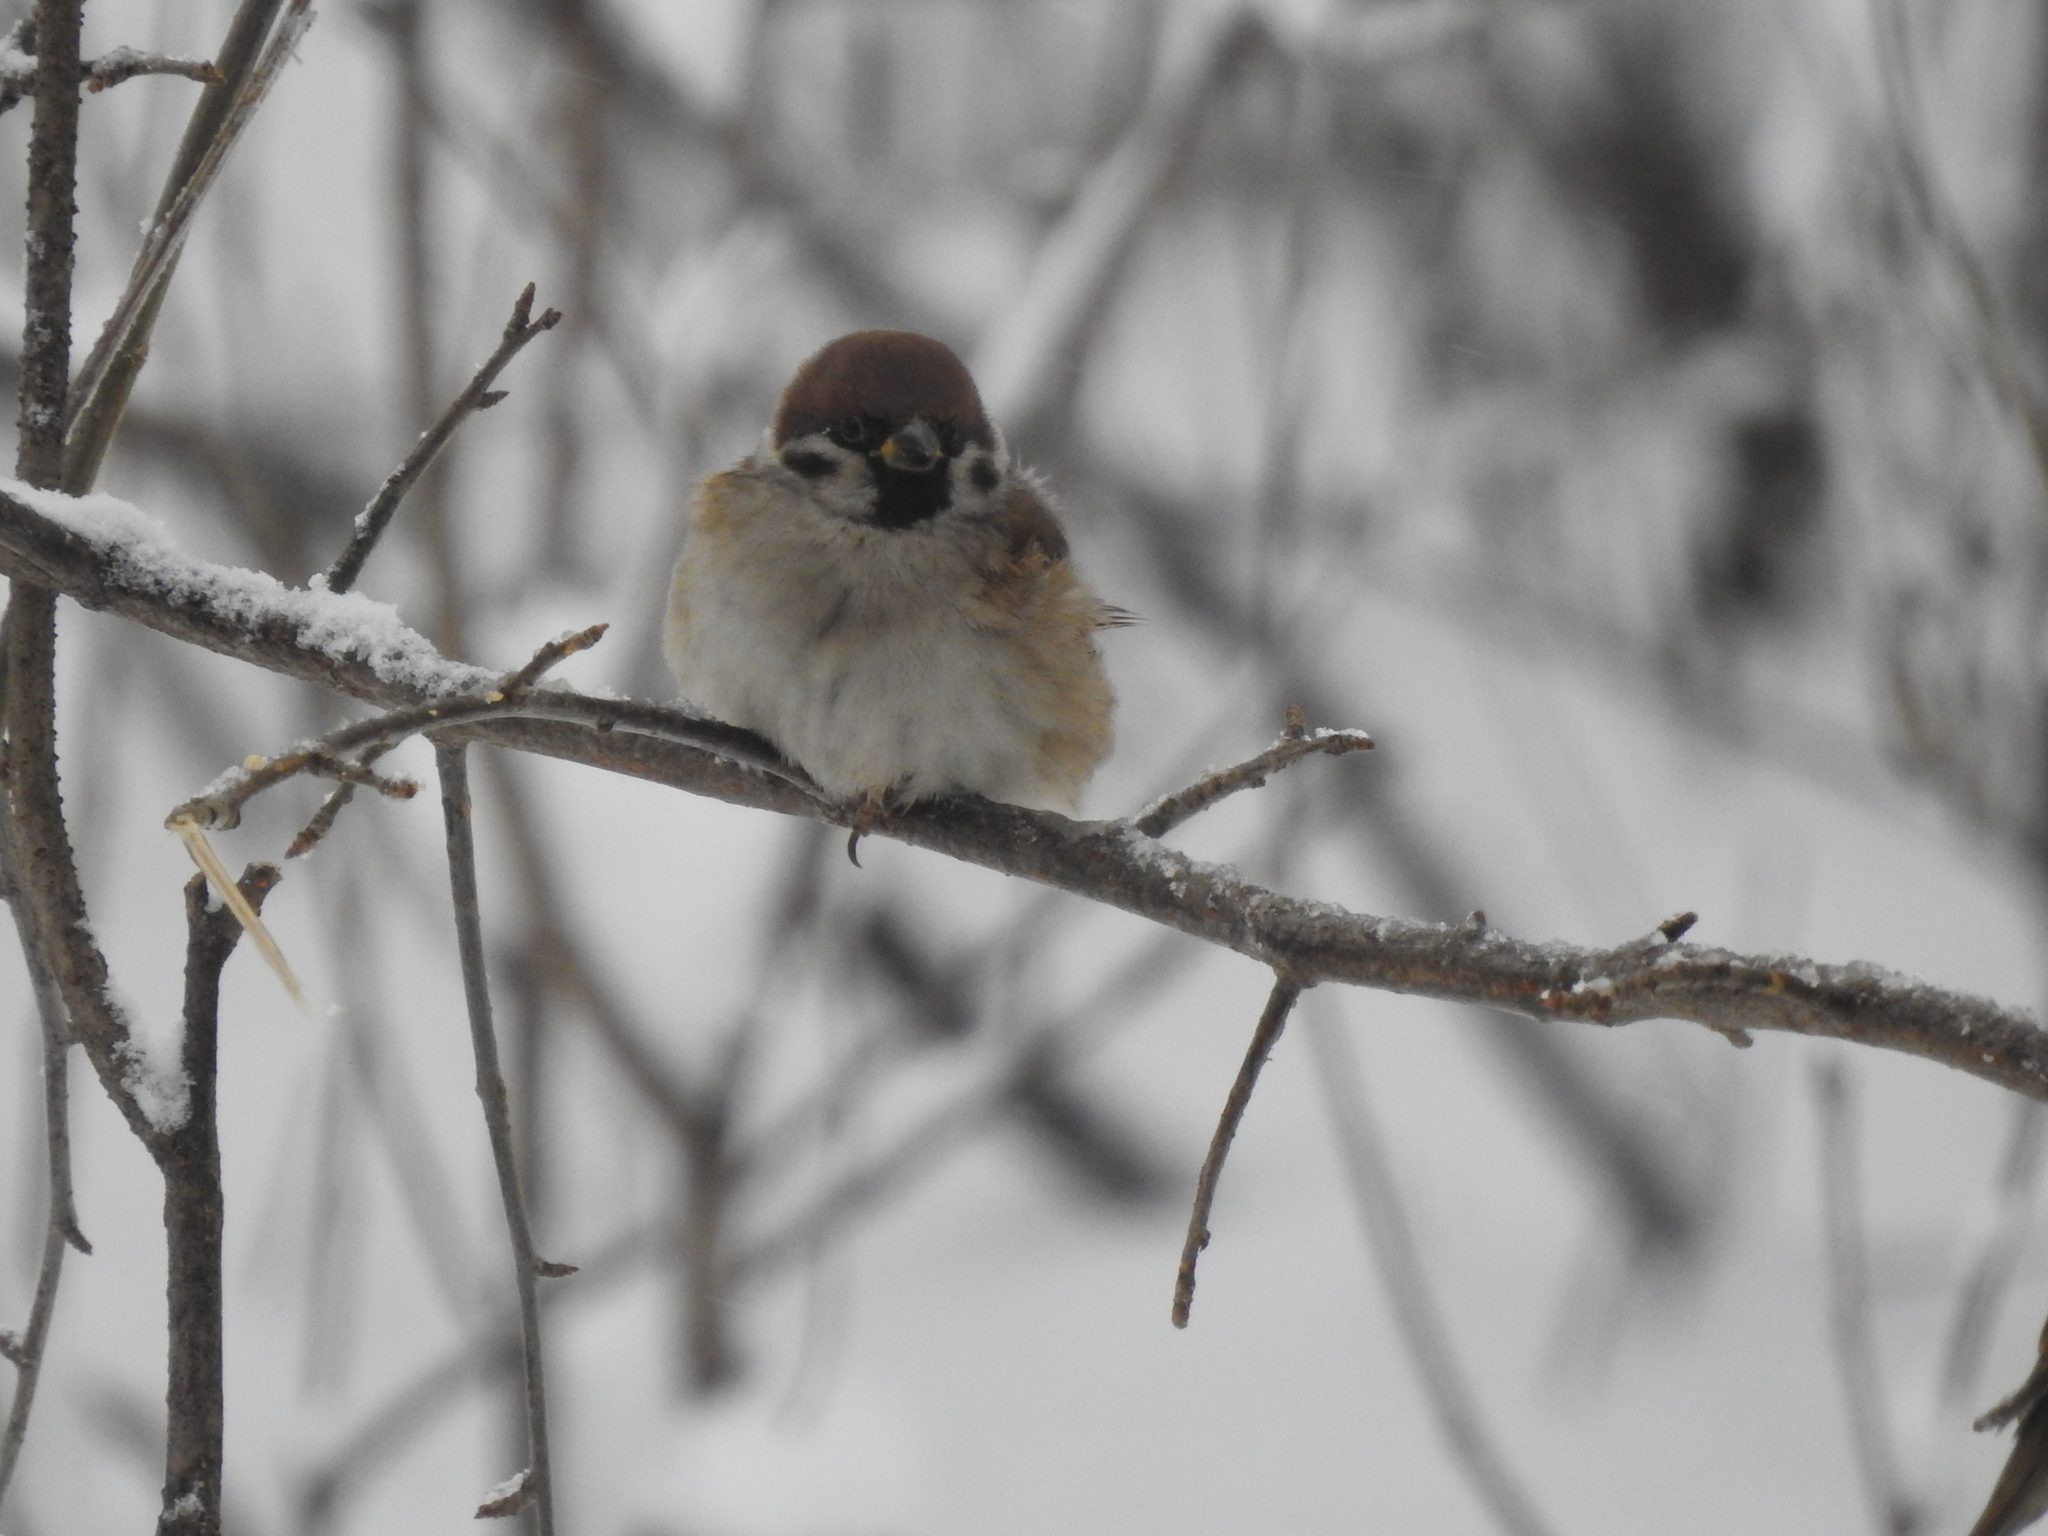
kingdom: Animalia
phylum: Chordata
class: Aves
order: Passeriformes
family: Passeridae
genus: Passer
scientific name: Passer montanus
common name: Eurasian tree sparrow
